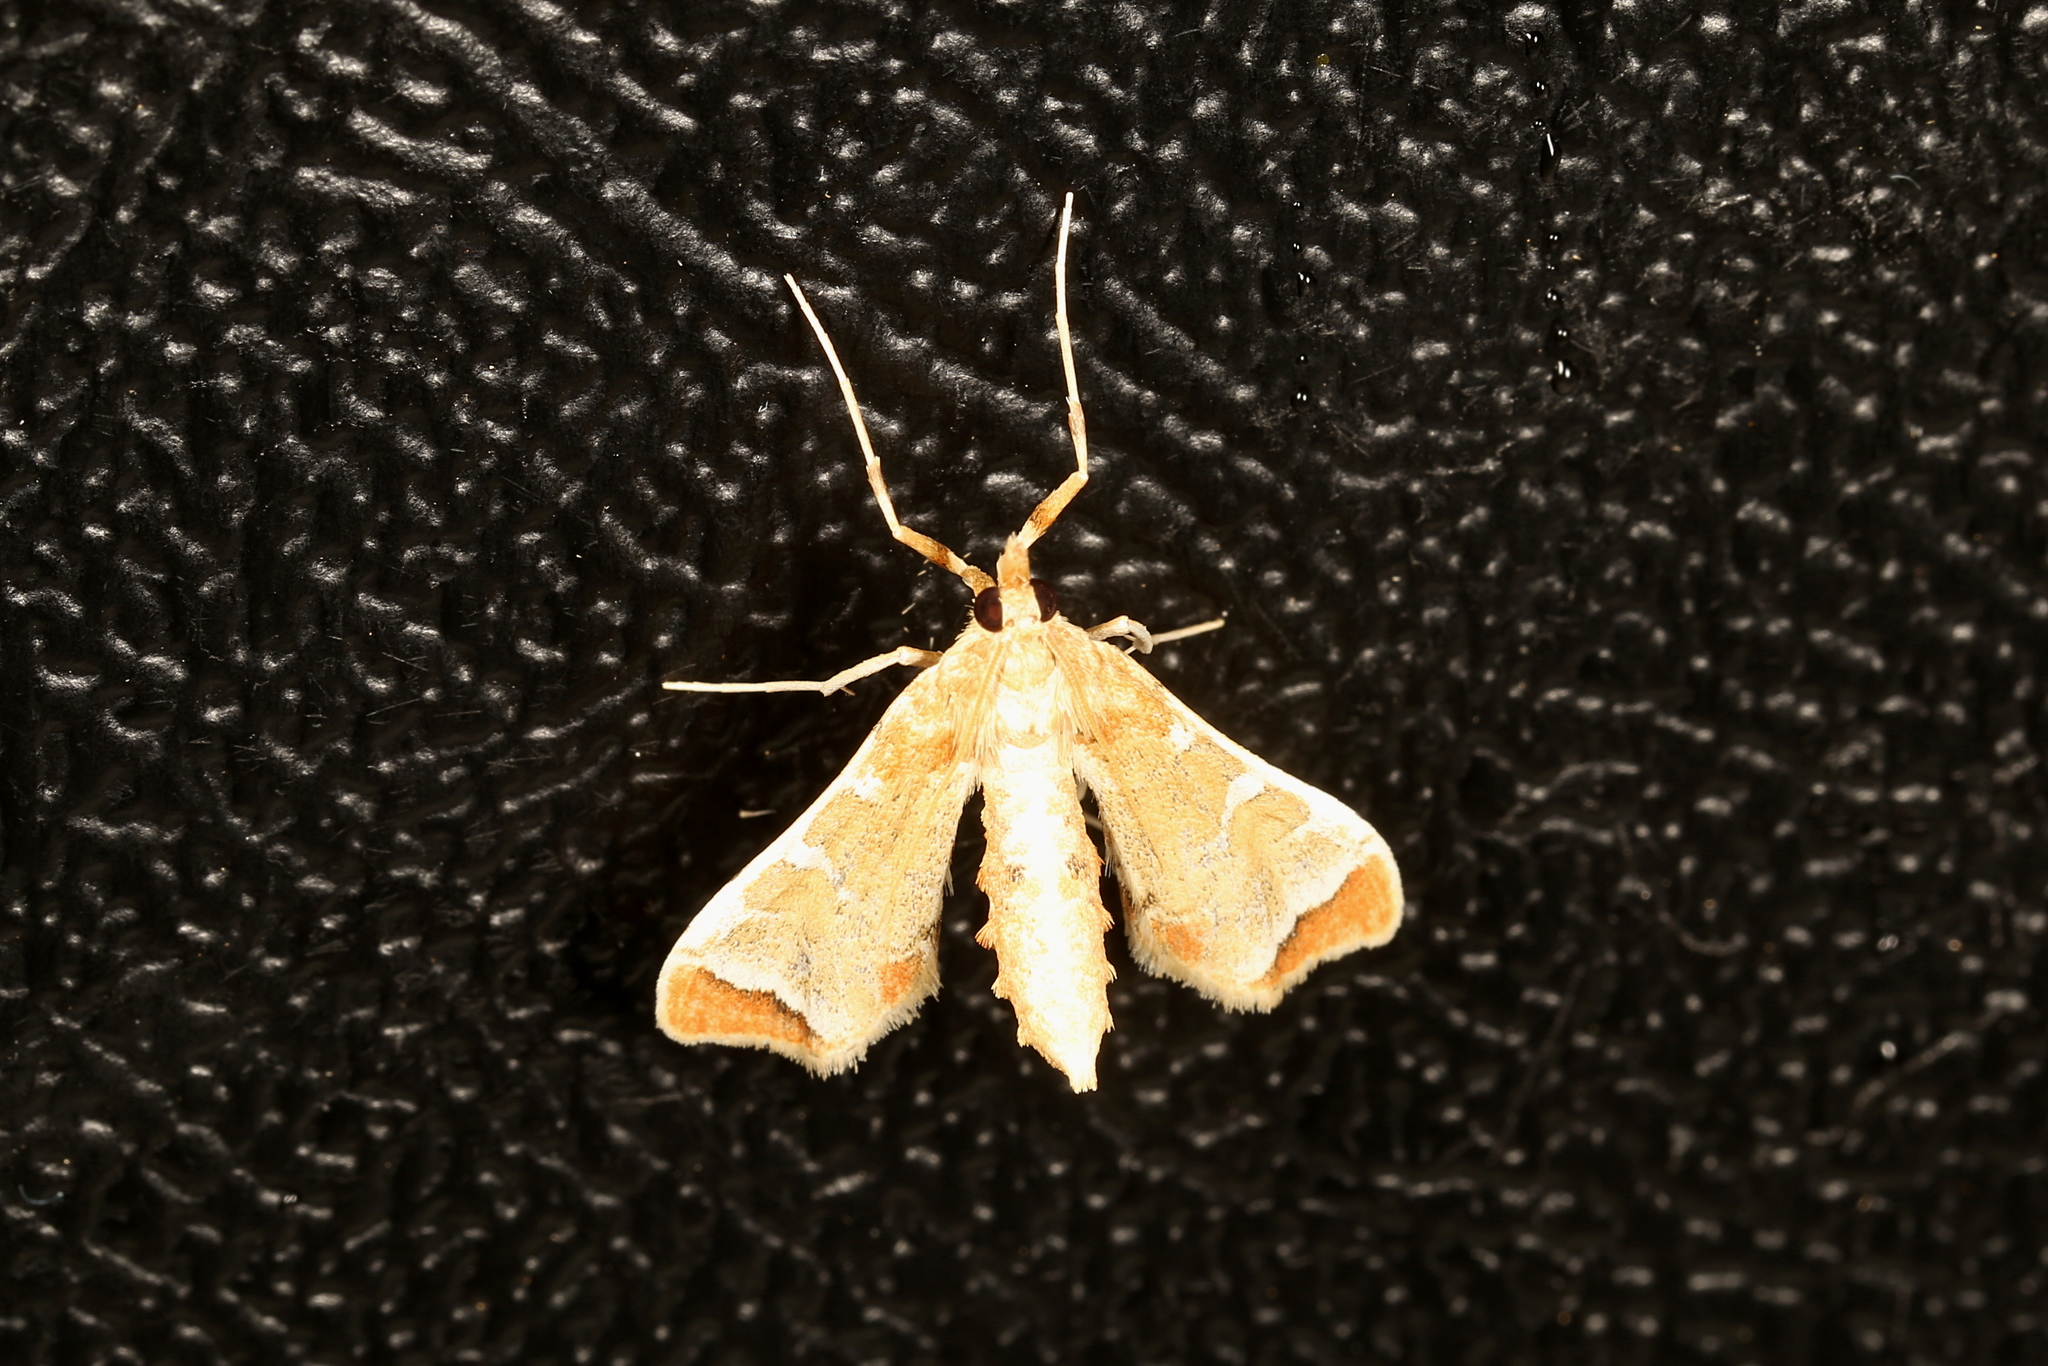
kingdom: Animalia
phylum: Arthropoda
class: Insecta
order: Lepidoptera
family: Crambidae
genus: Sceliodes
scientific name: Sceliodes cordalis
